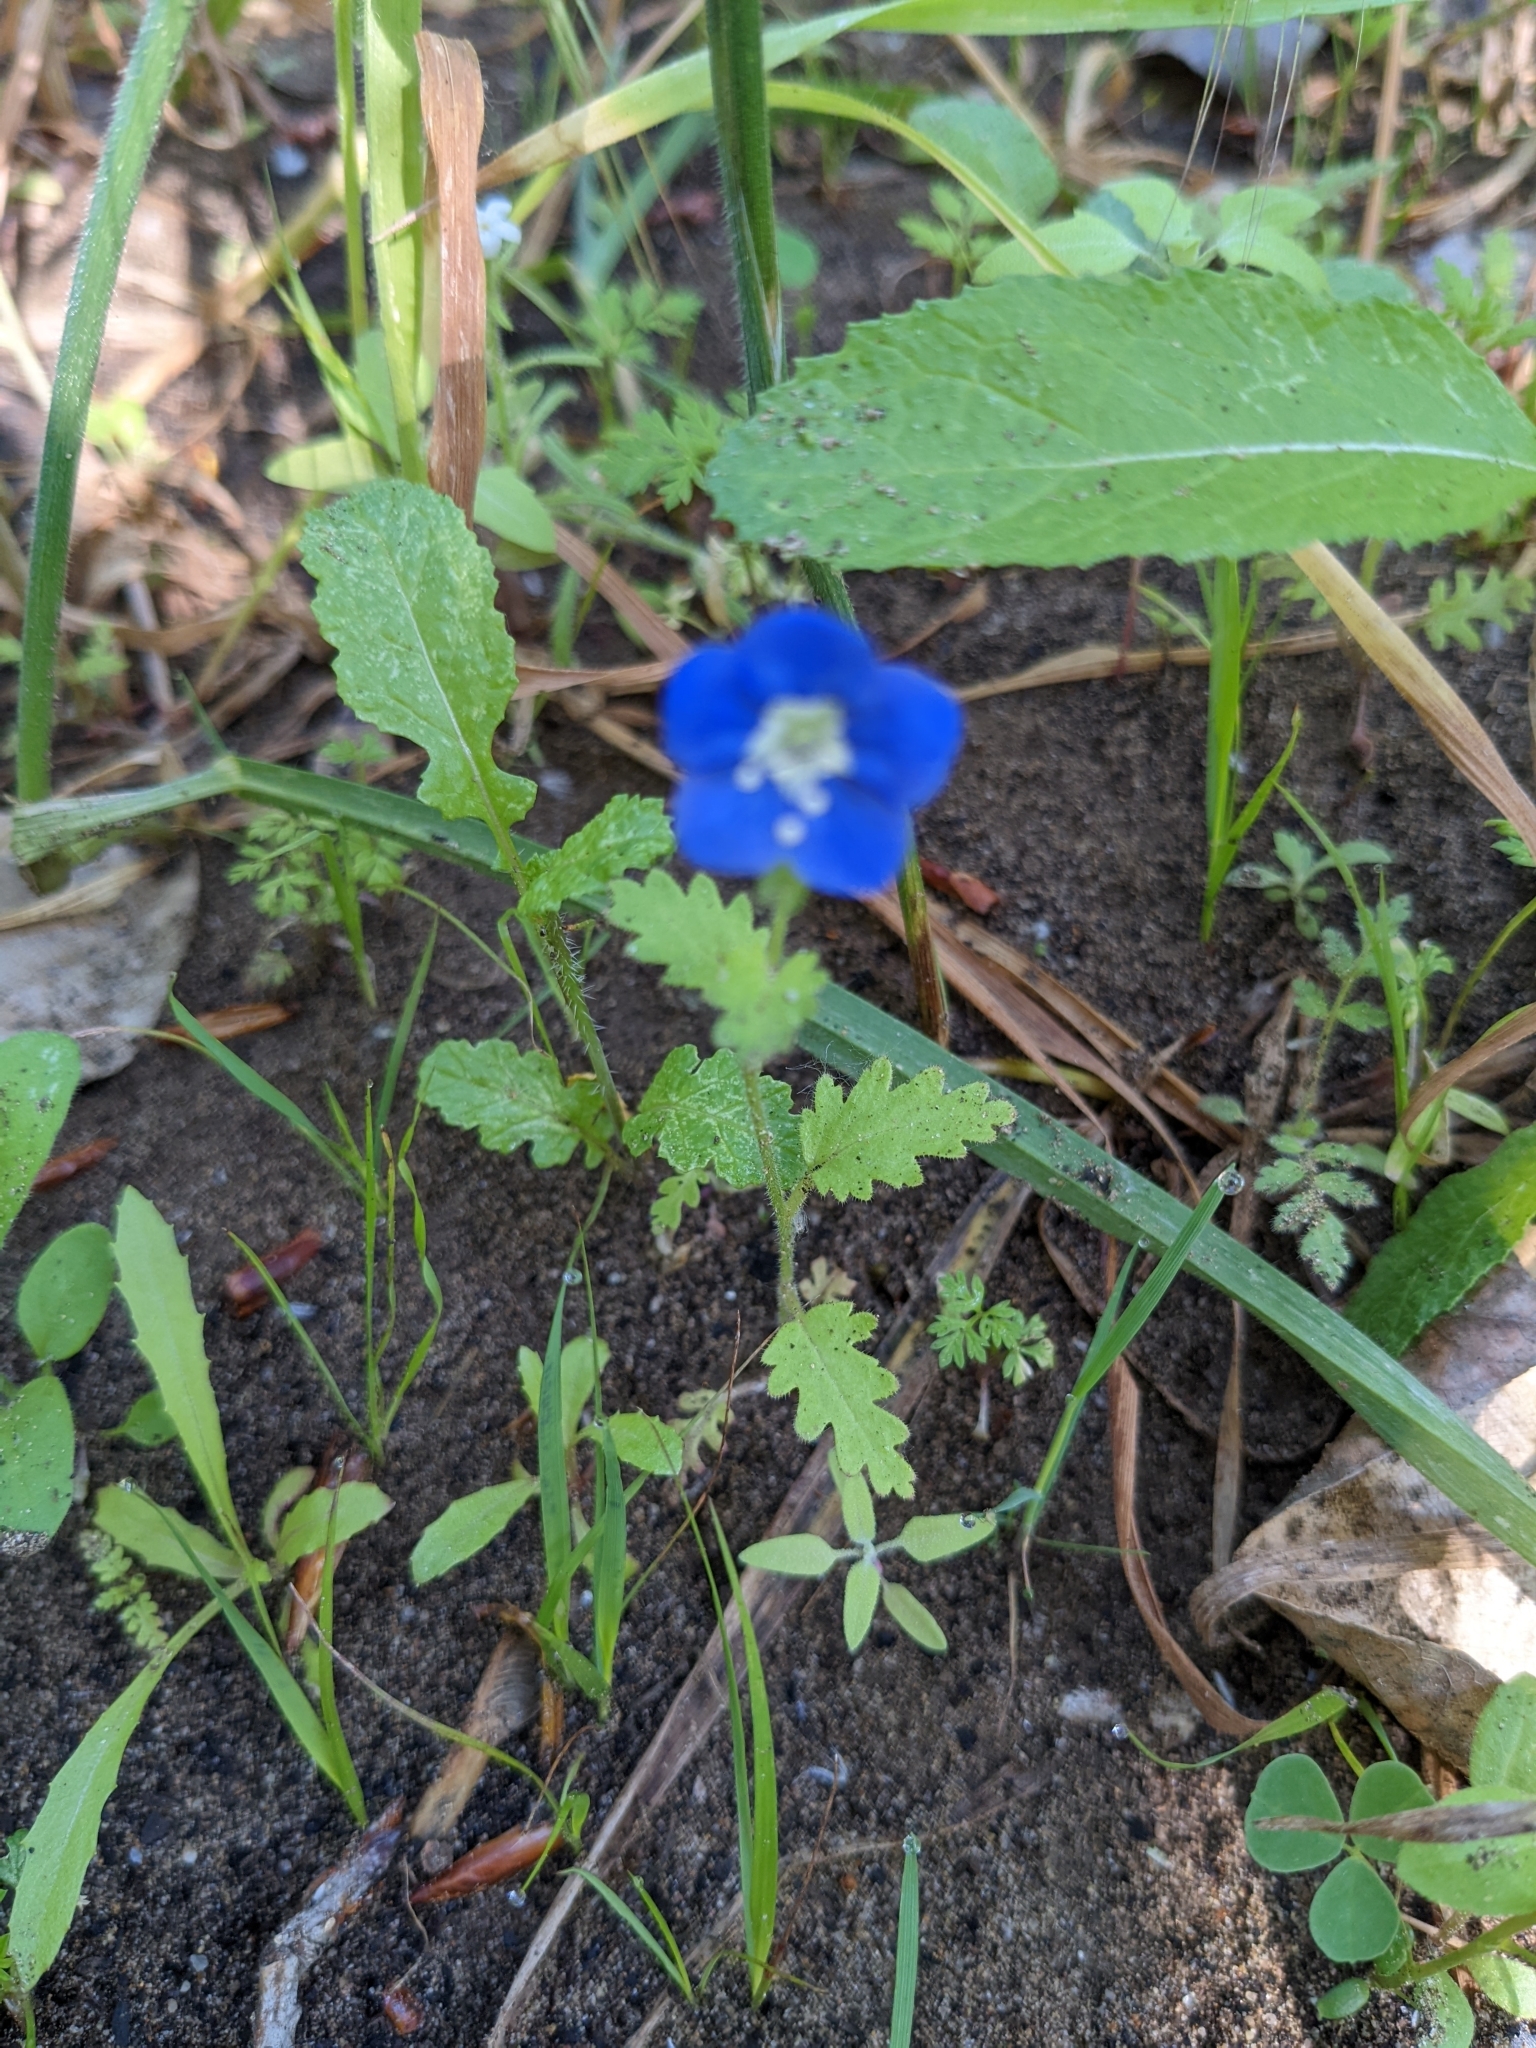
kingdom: Plantae
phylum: Tracheophyta
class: Magnoliopsida
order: Boraginales
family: Hydrophyllaceae
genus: Phacelia
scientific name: Phacelia viscida
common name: Sticky phacelia
